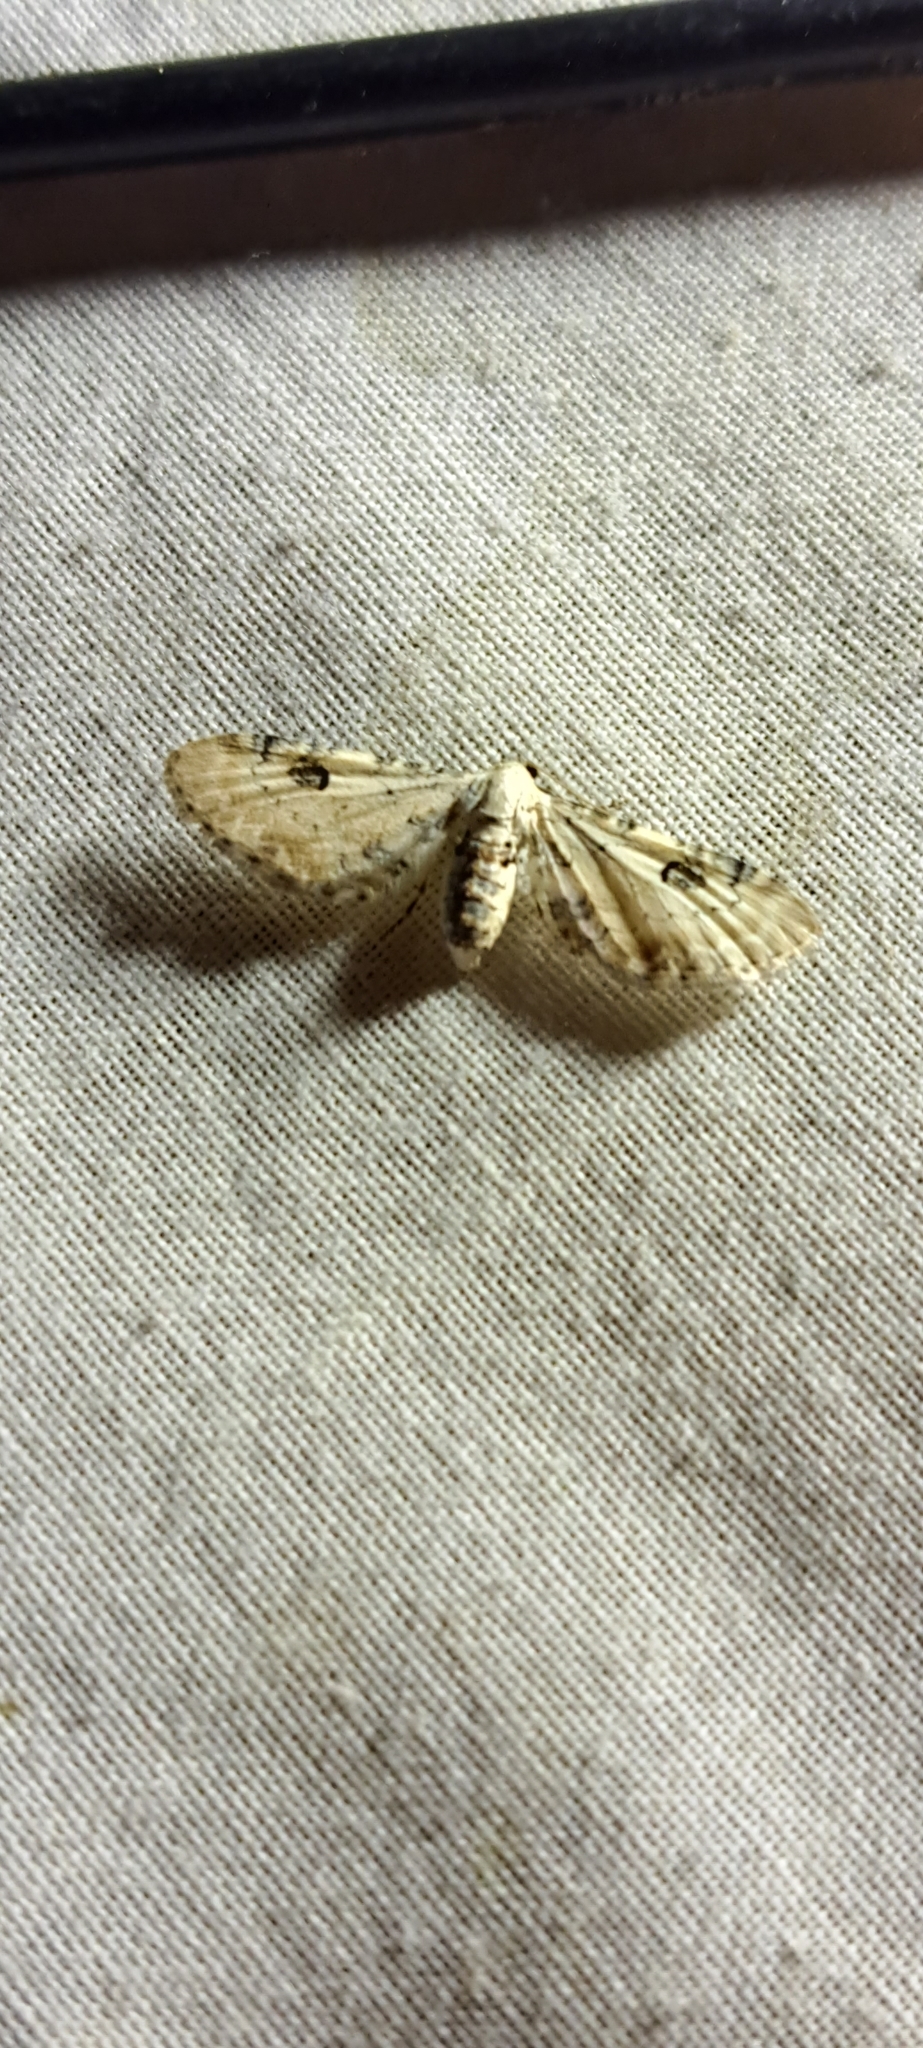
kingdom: Animalia
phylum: Arthropoda
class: Insecta
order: Lepidoptera
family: Geometridae
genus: Eupithecia
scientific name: Eupithecia centaureata
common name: Lime-speck pug
